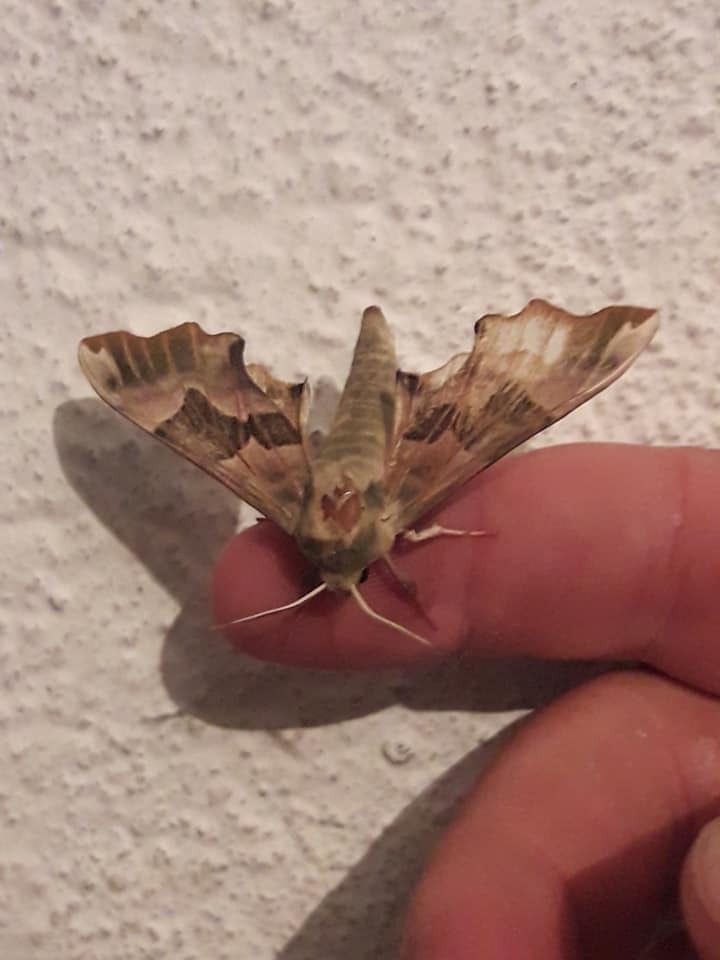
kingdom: Animalia
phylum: Arthropoda
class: Insecta
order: Lepidoptera
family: Sphingidae
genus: Mimas
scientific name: Mimas tiliae
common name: Lime hawk-moth
